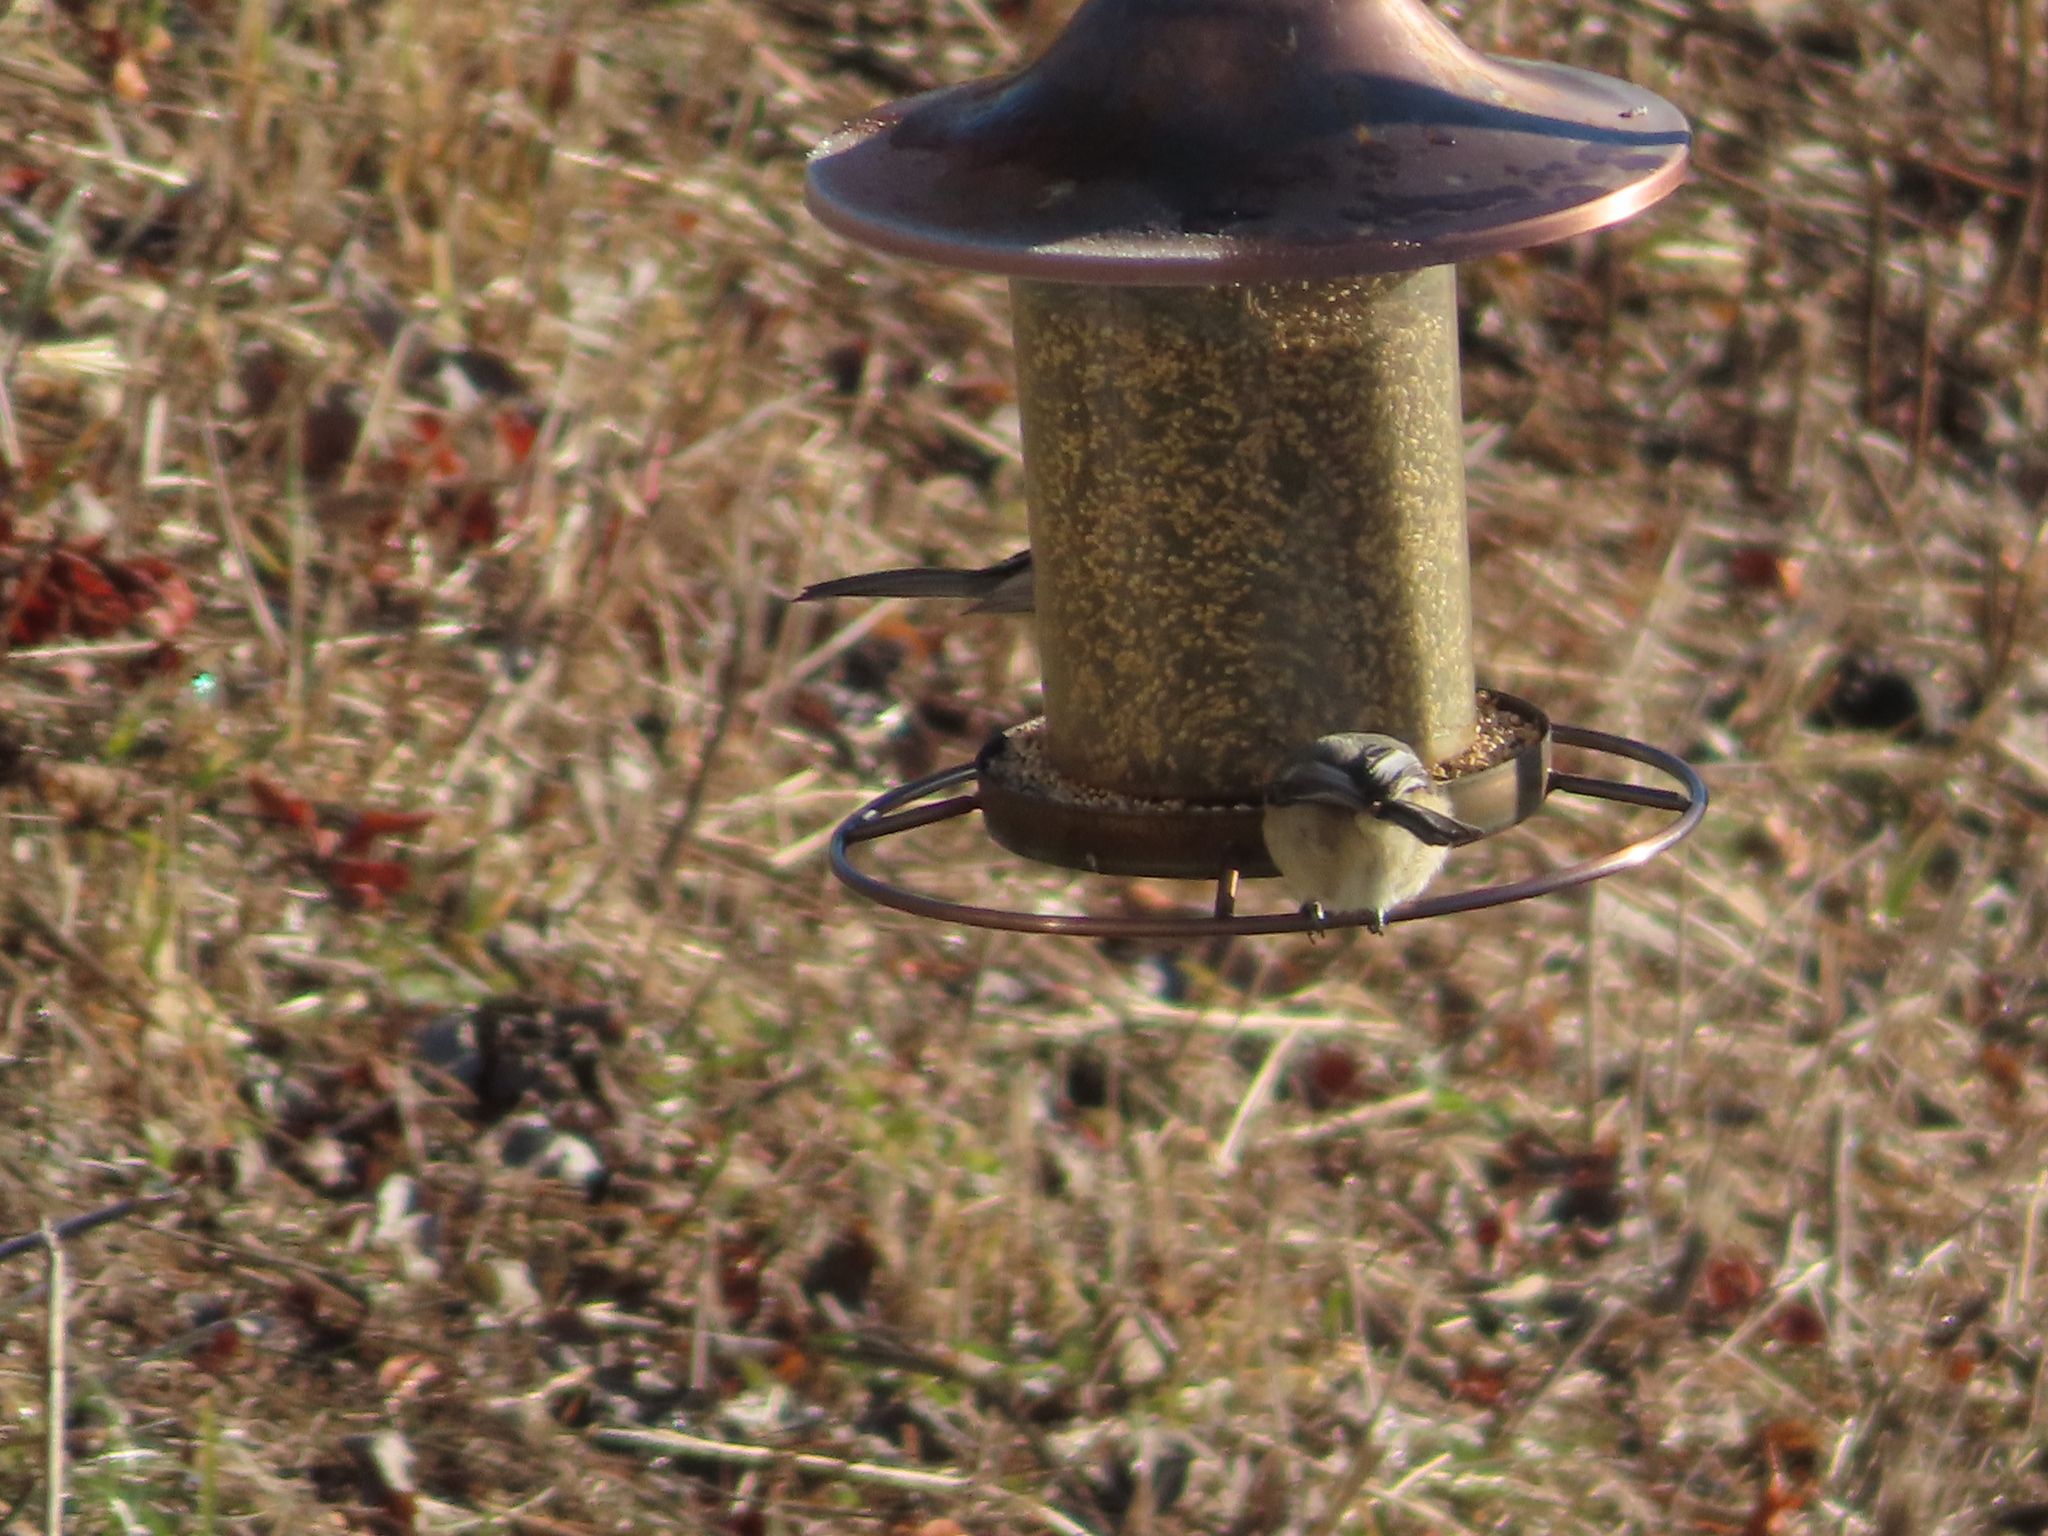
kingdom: Animalia
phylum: Chordata
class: Aves
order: Passeriformes
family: Paridae
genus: Baeolophus
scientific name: Baeolophus bicolor
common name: Tufted titmouse
